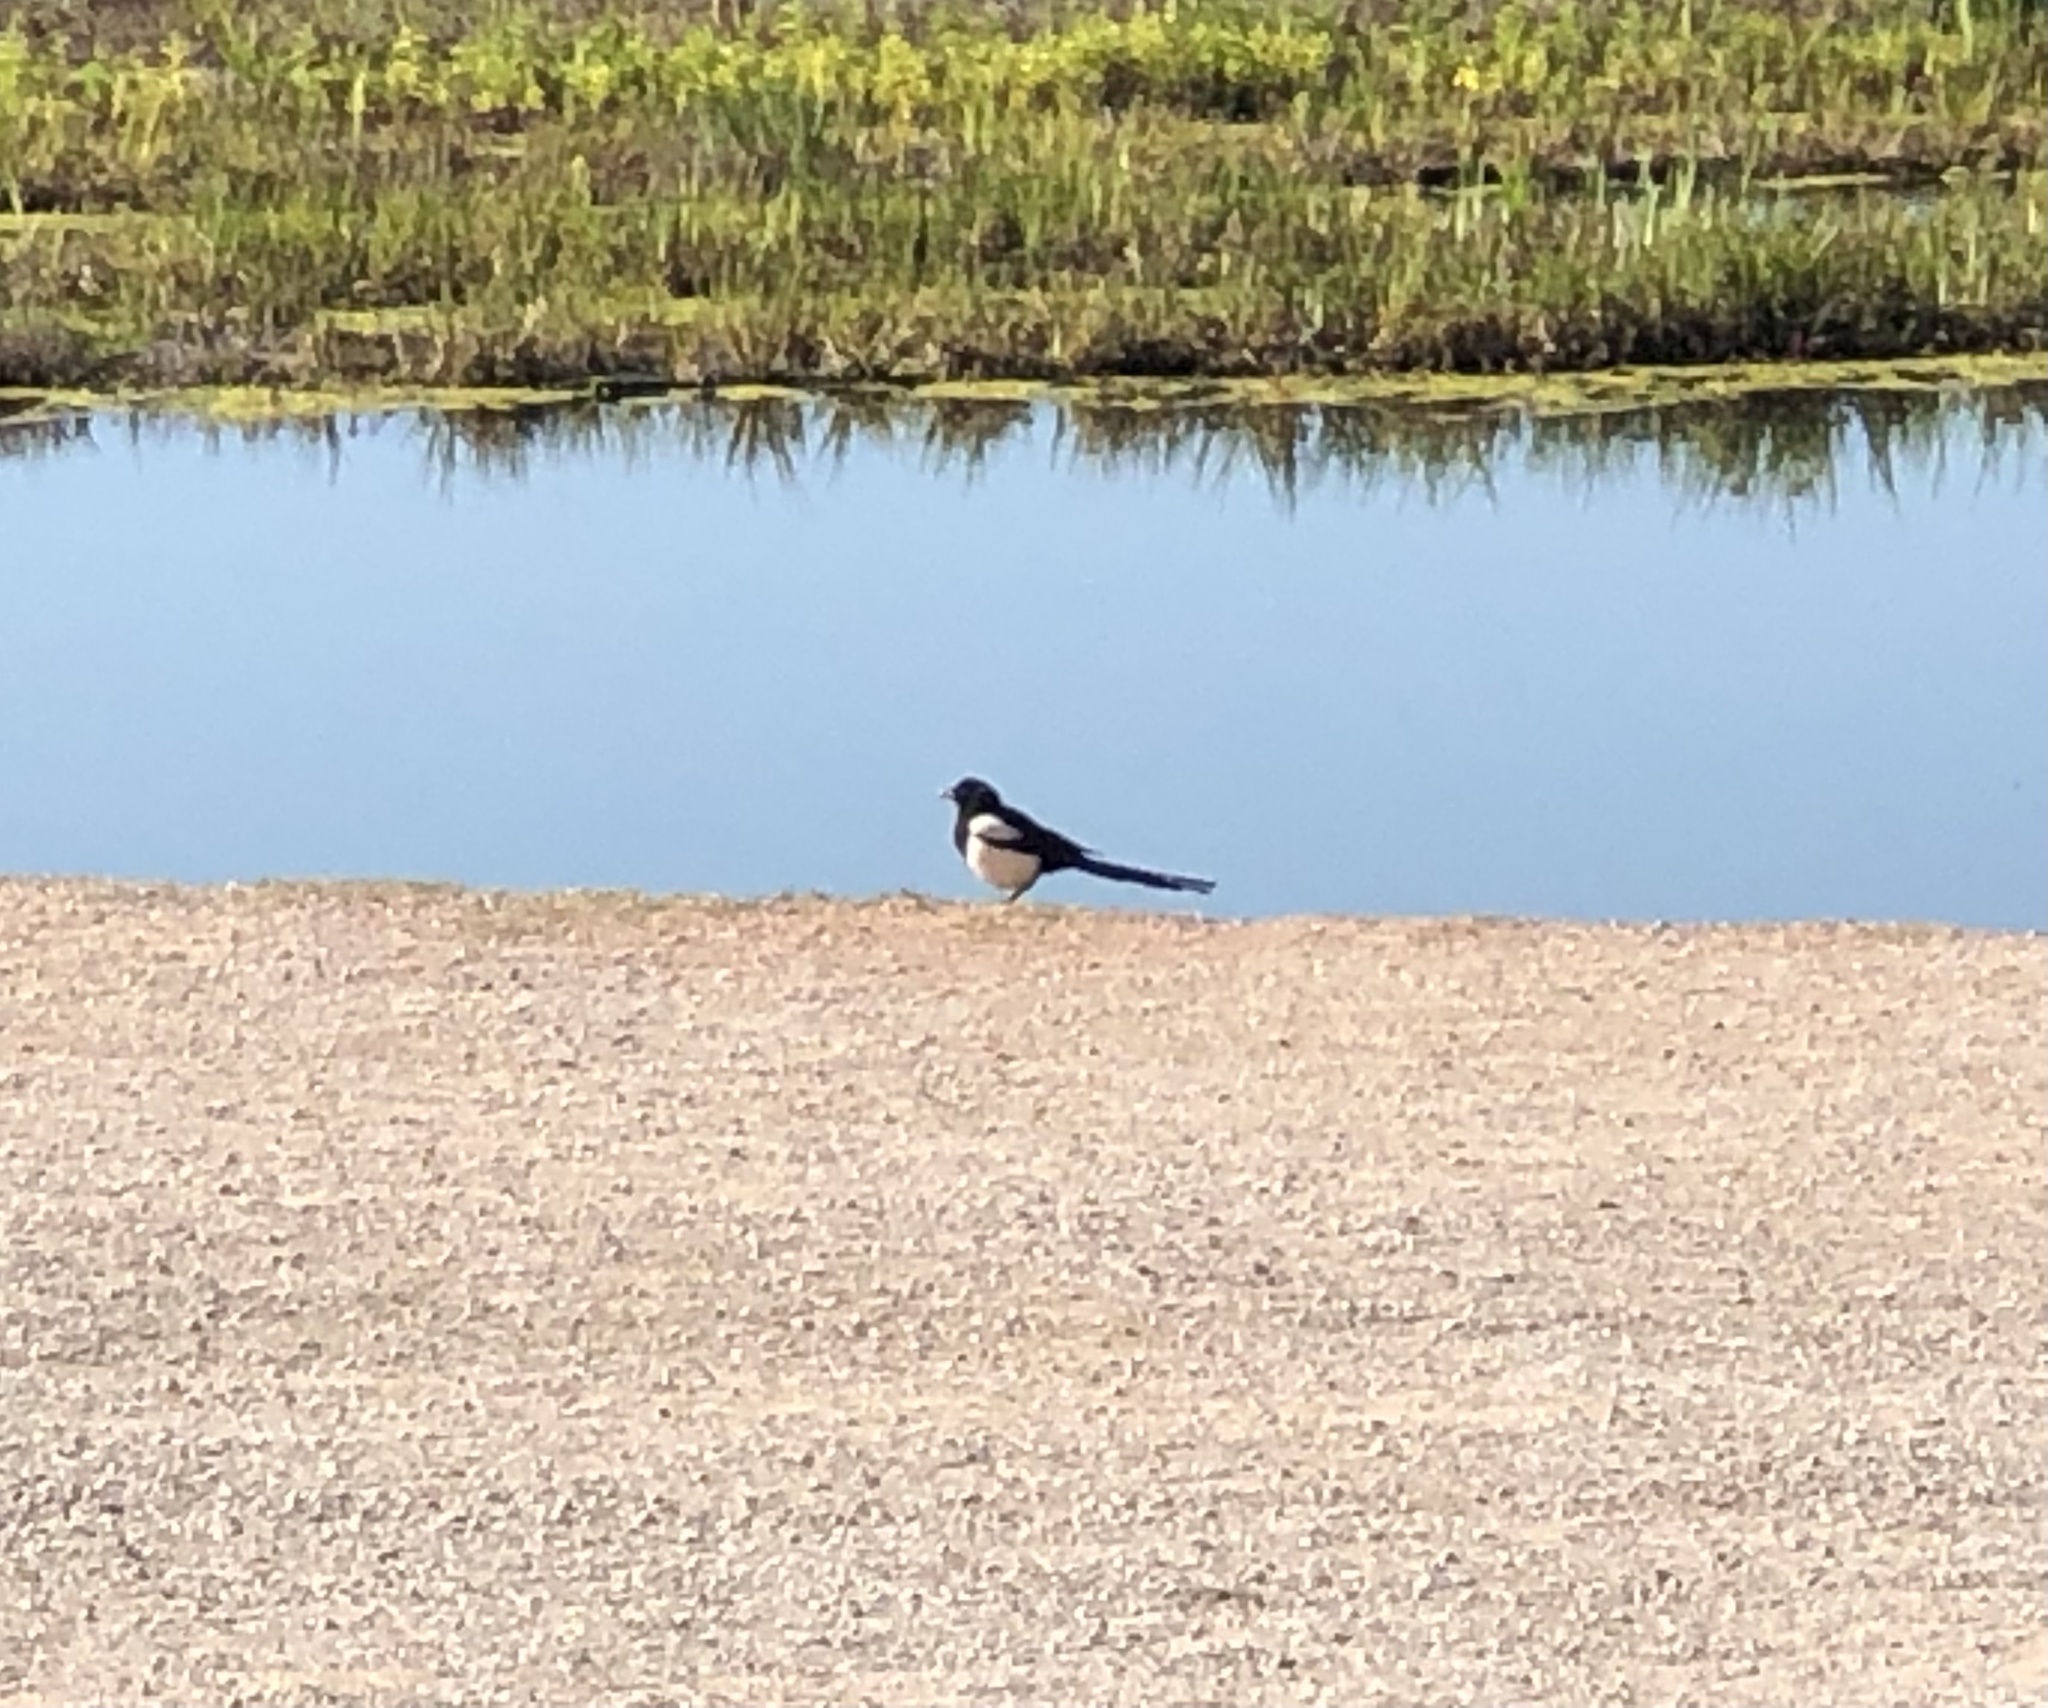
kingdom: Animalia
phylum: Chordata
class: Aves
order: Passeriformes
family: Corvidae
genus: Pica
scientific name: Pica pica
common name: Eurasian magpie
